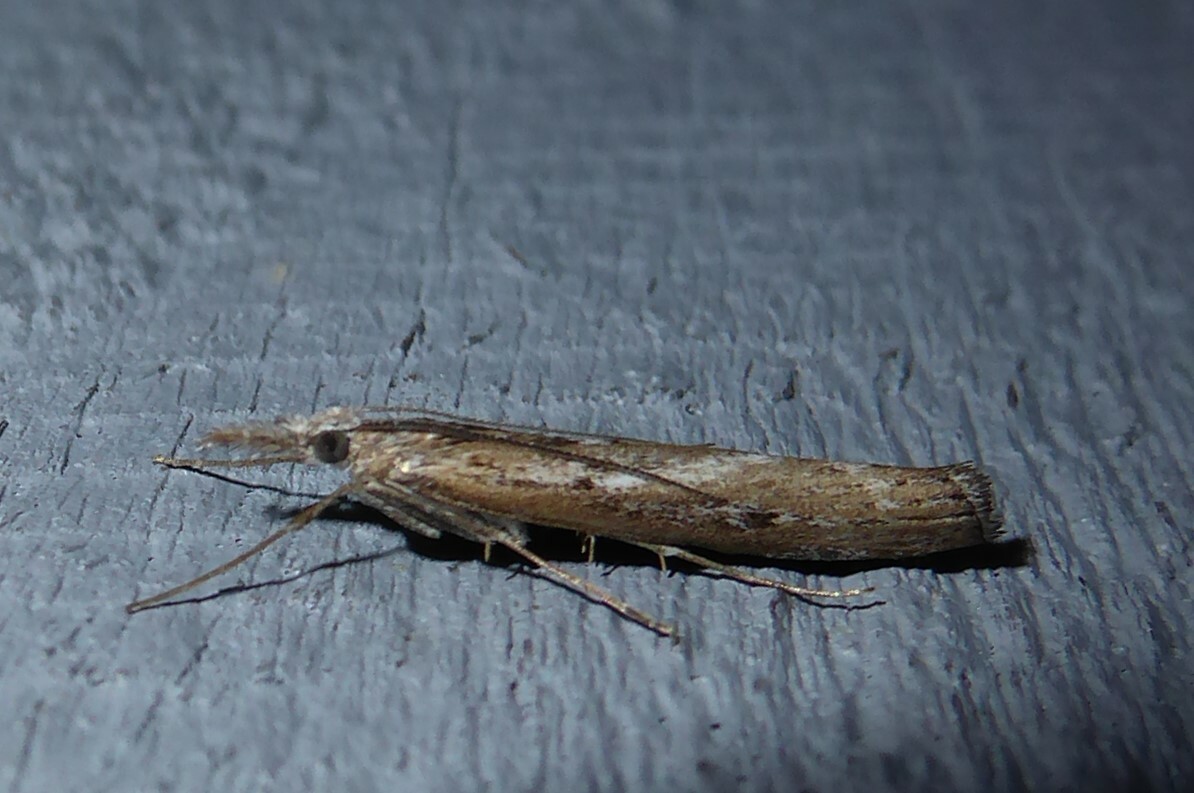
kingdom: Animalia
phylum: Arthropoda
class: Insecta
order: Lepidoptera
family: Crambidae
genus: Orocrambus
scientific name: Orocrambus cyclopicus
